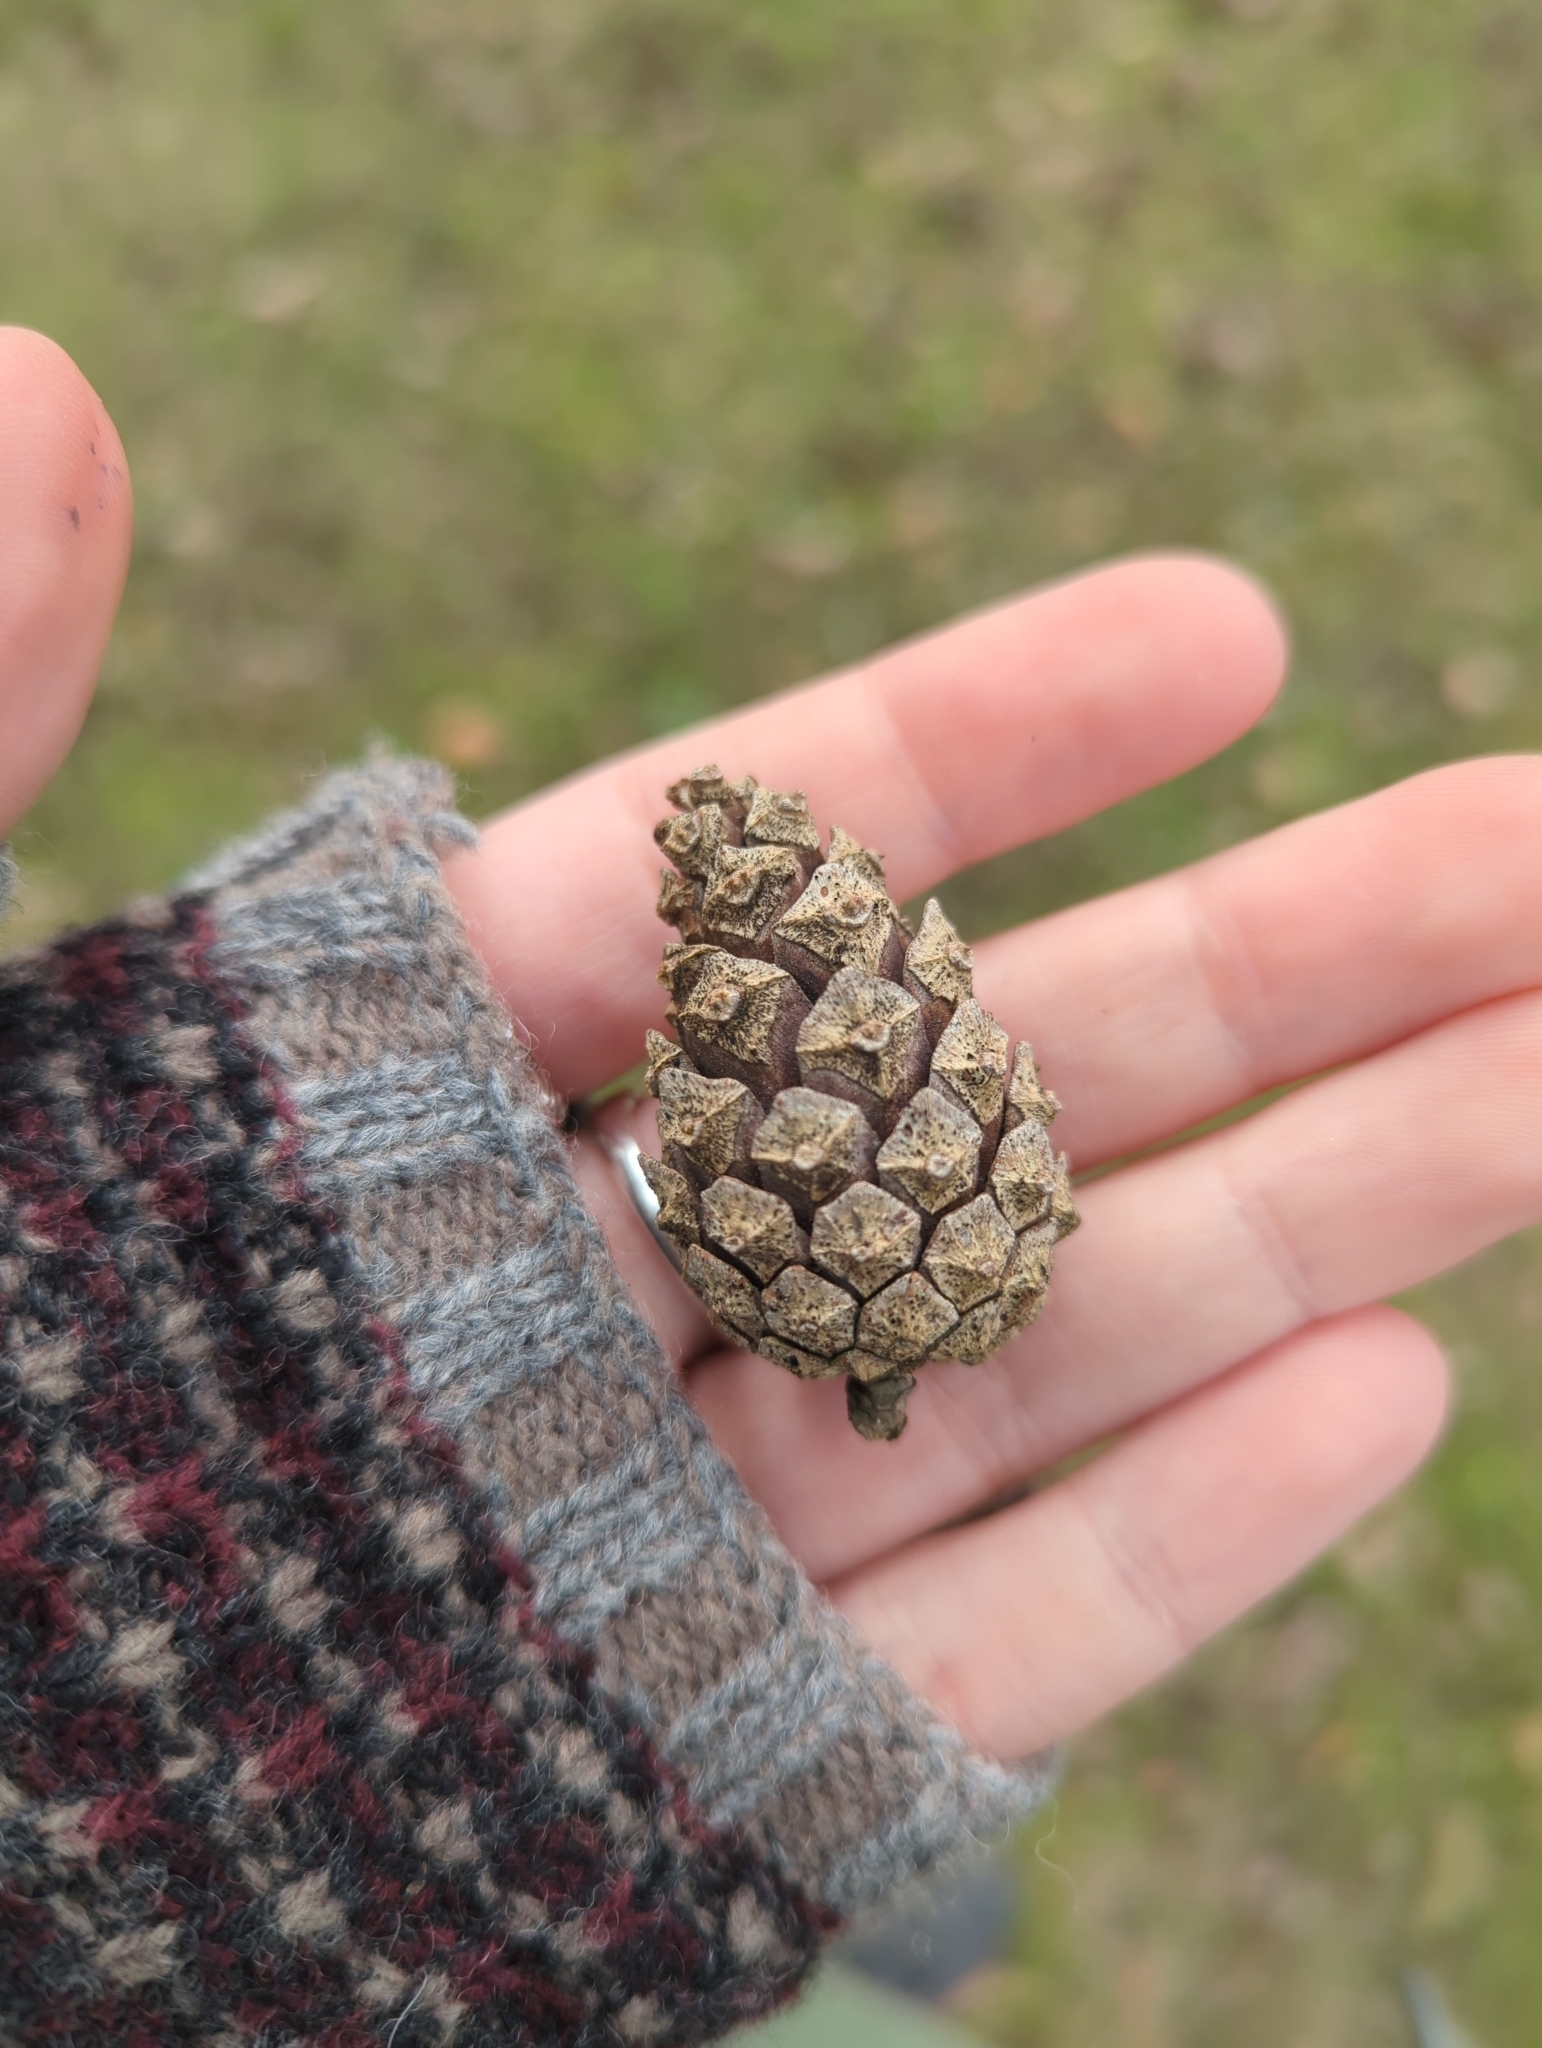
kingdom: Plantae
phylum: Tracheophyta
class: Pinopsida
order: Pinales
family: Pinaceae
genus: Pinus
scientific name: Pinus sylvestris
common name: Scots pine
